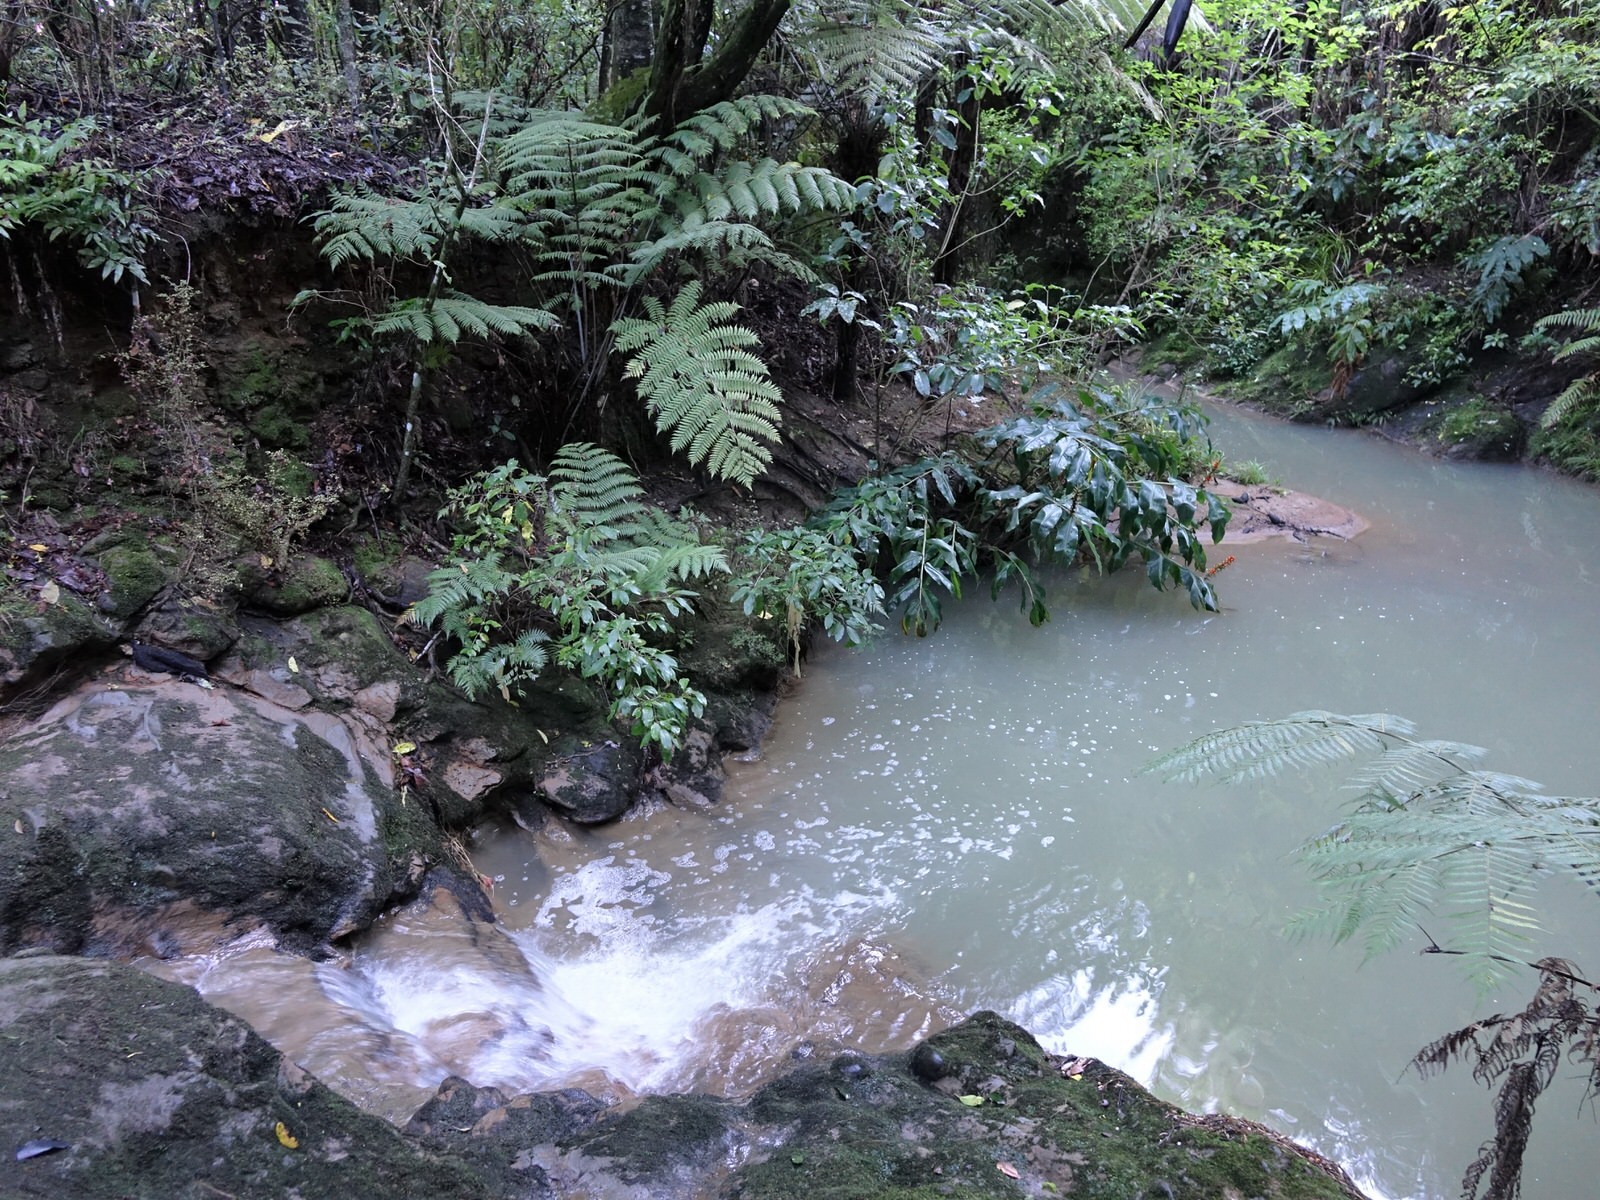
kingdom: Plantae
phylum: Tracheophyta
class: Liliopsida
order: Zingiberales
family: Zingiberaceae
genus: Hedychium
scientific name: Hedychium gardnerianum
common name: Himalayan ginger
